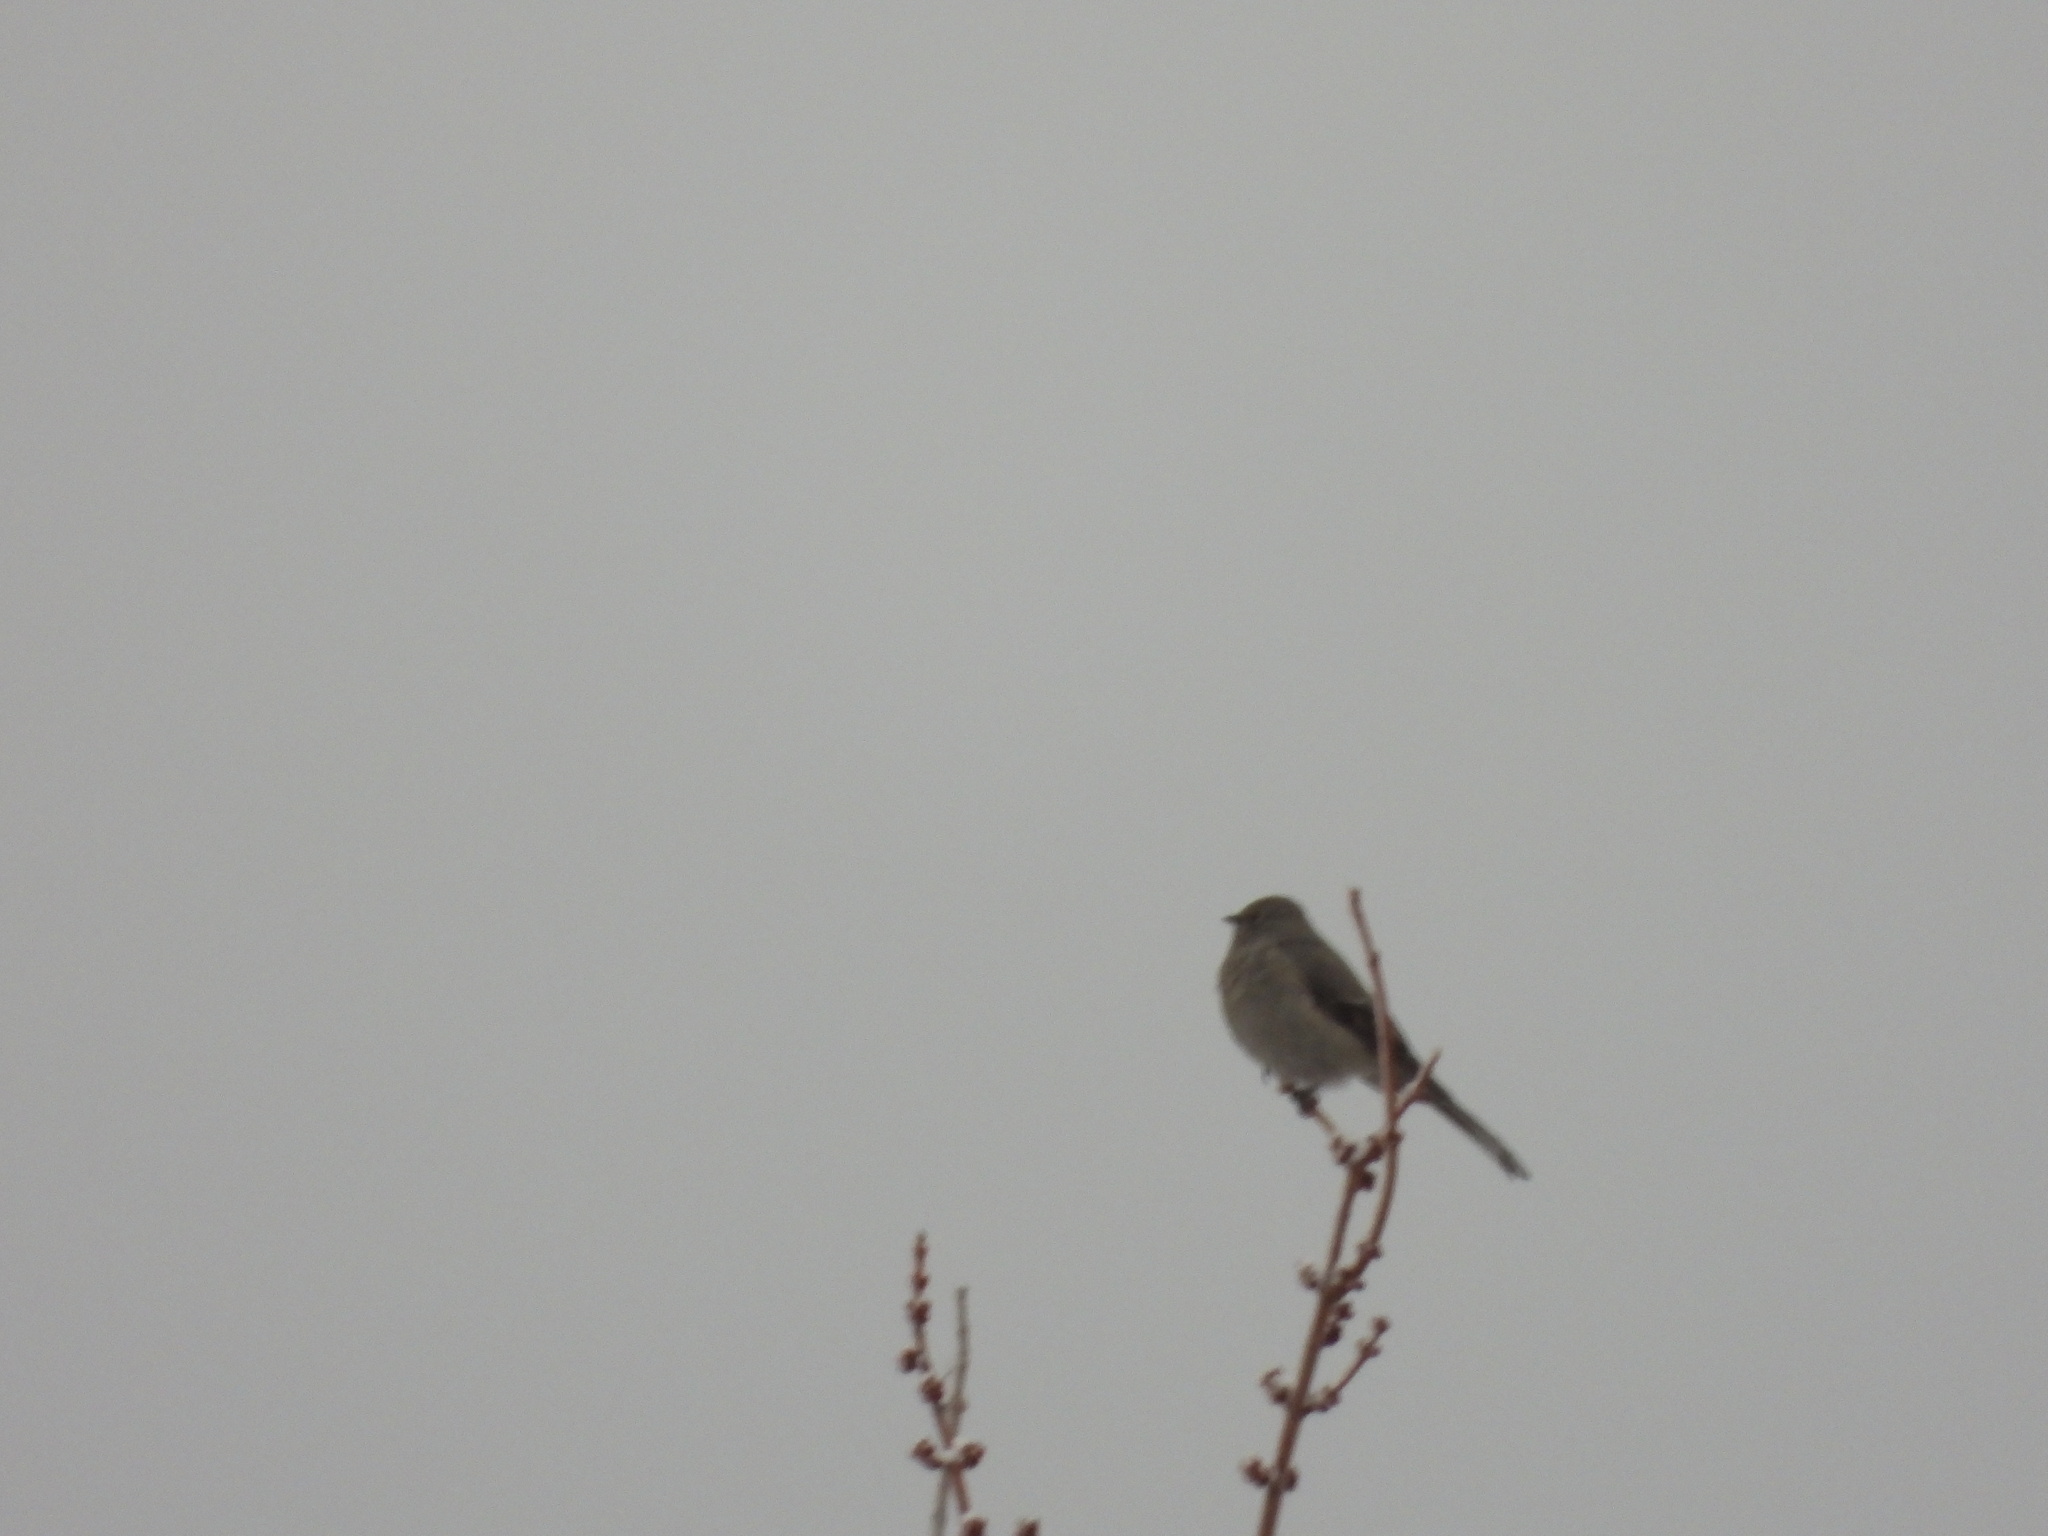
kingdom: Animalia
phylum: Chordata
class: Aves
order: Passeriformes
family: Turdidae
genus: Myadestes
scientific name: Myadestes townsendi
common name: Townsend's solitaire
